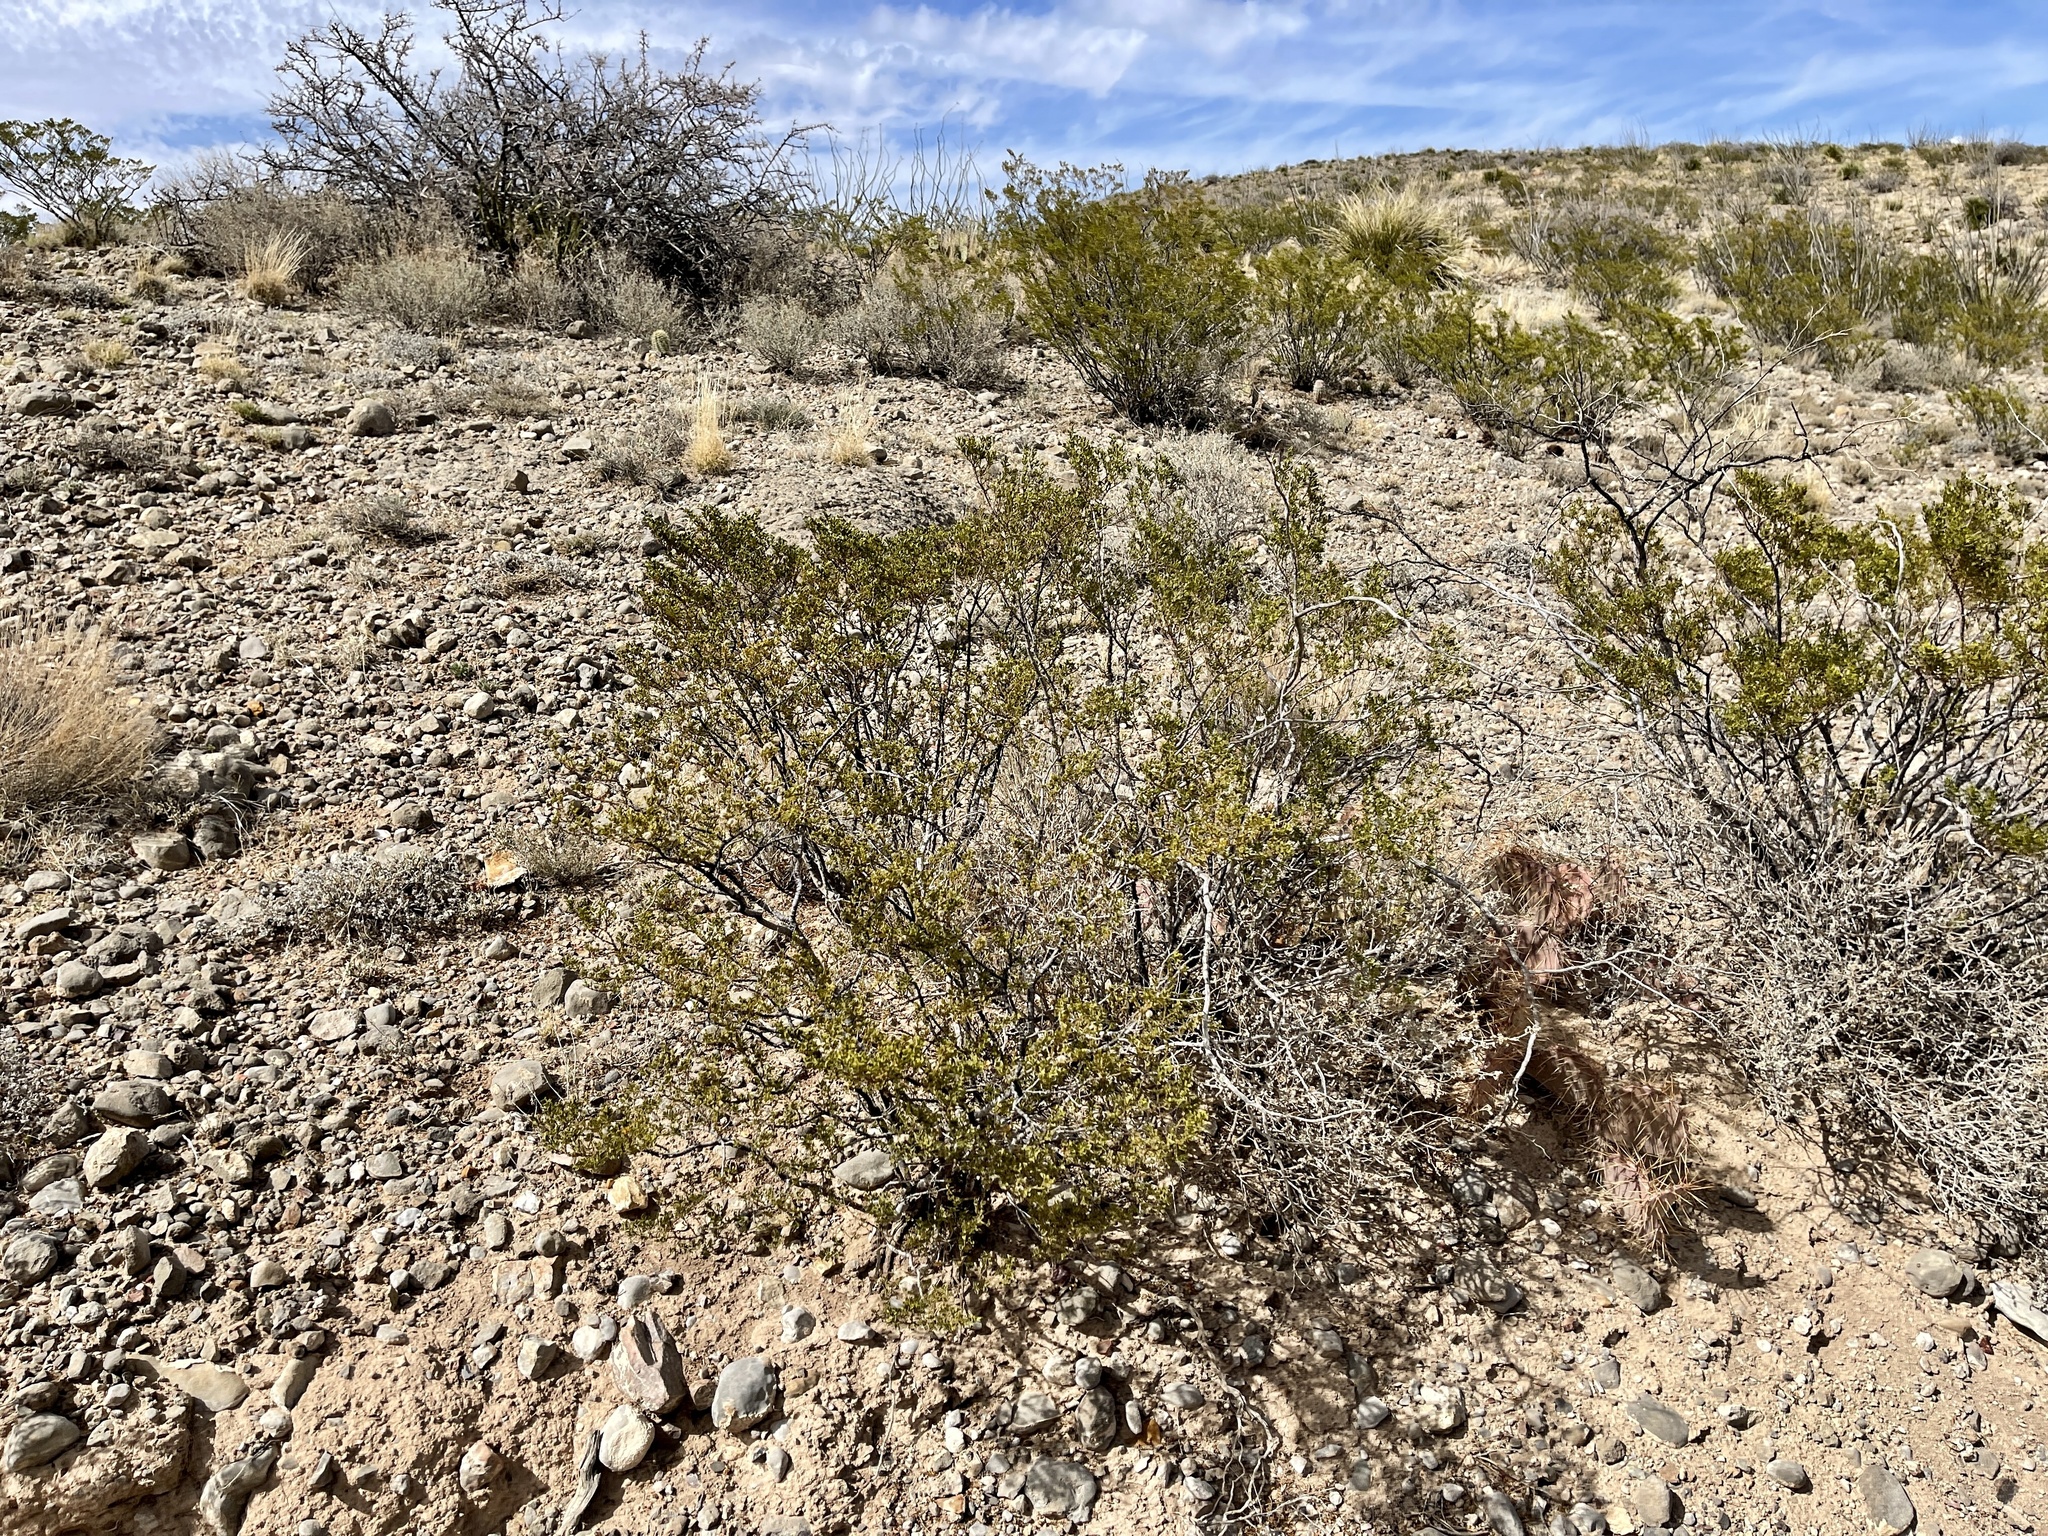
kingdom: Plantae
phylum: Tracheophyta
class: Magnoliopsida
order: Zygophyllales
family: Zygophyllaceae
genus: Larrea
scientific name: Larrea tridentata
